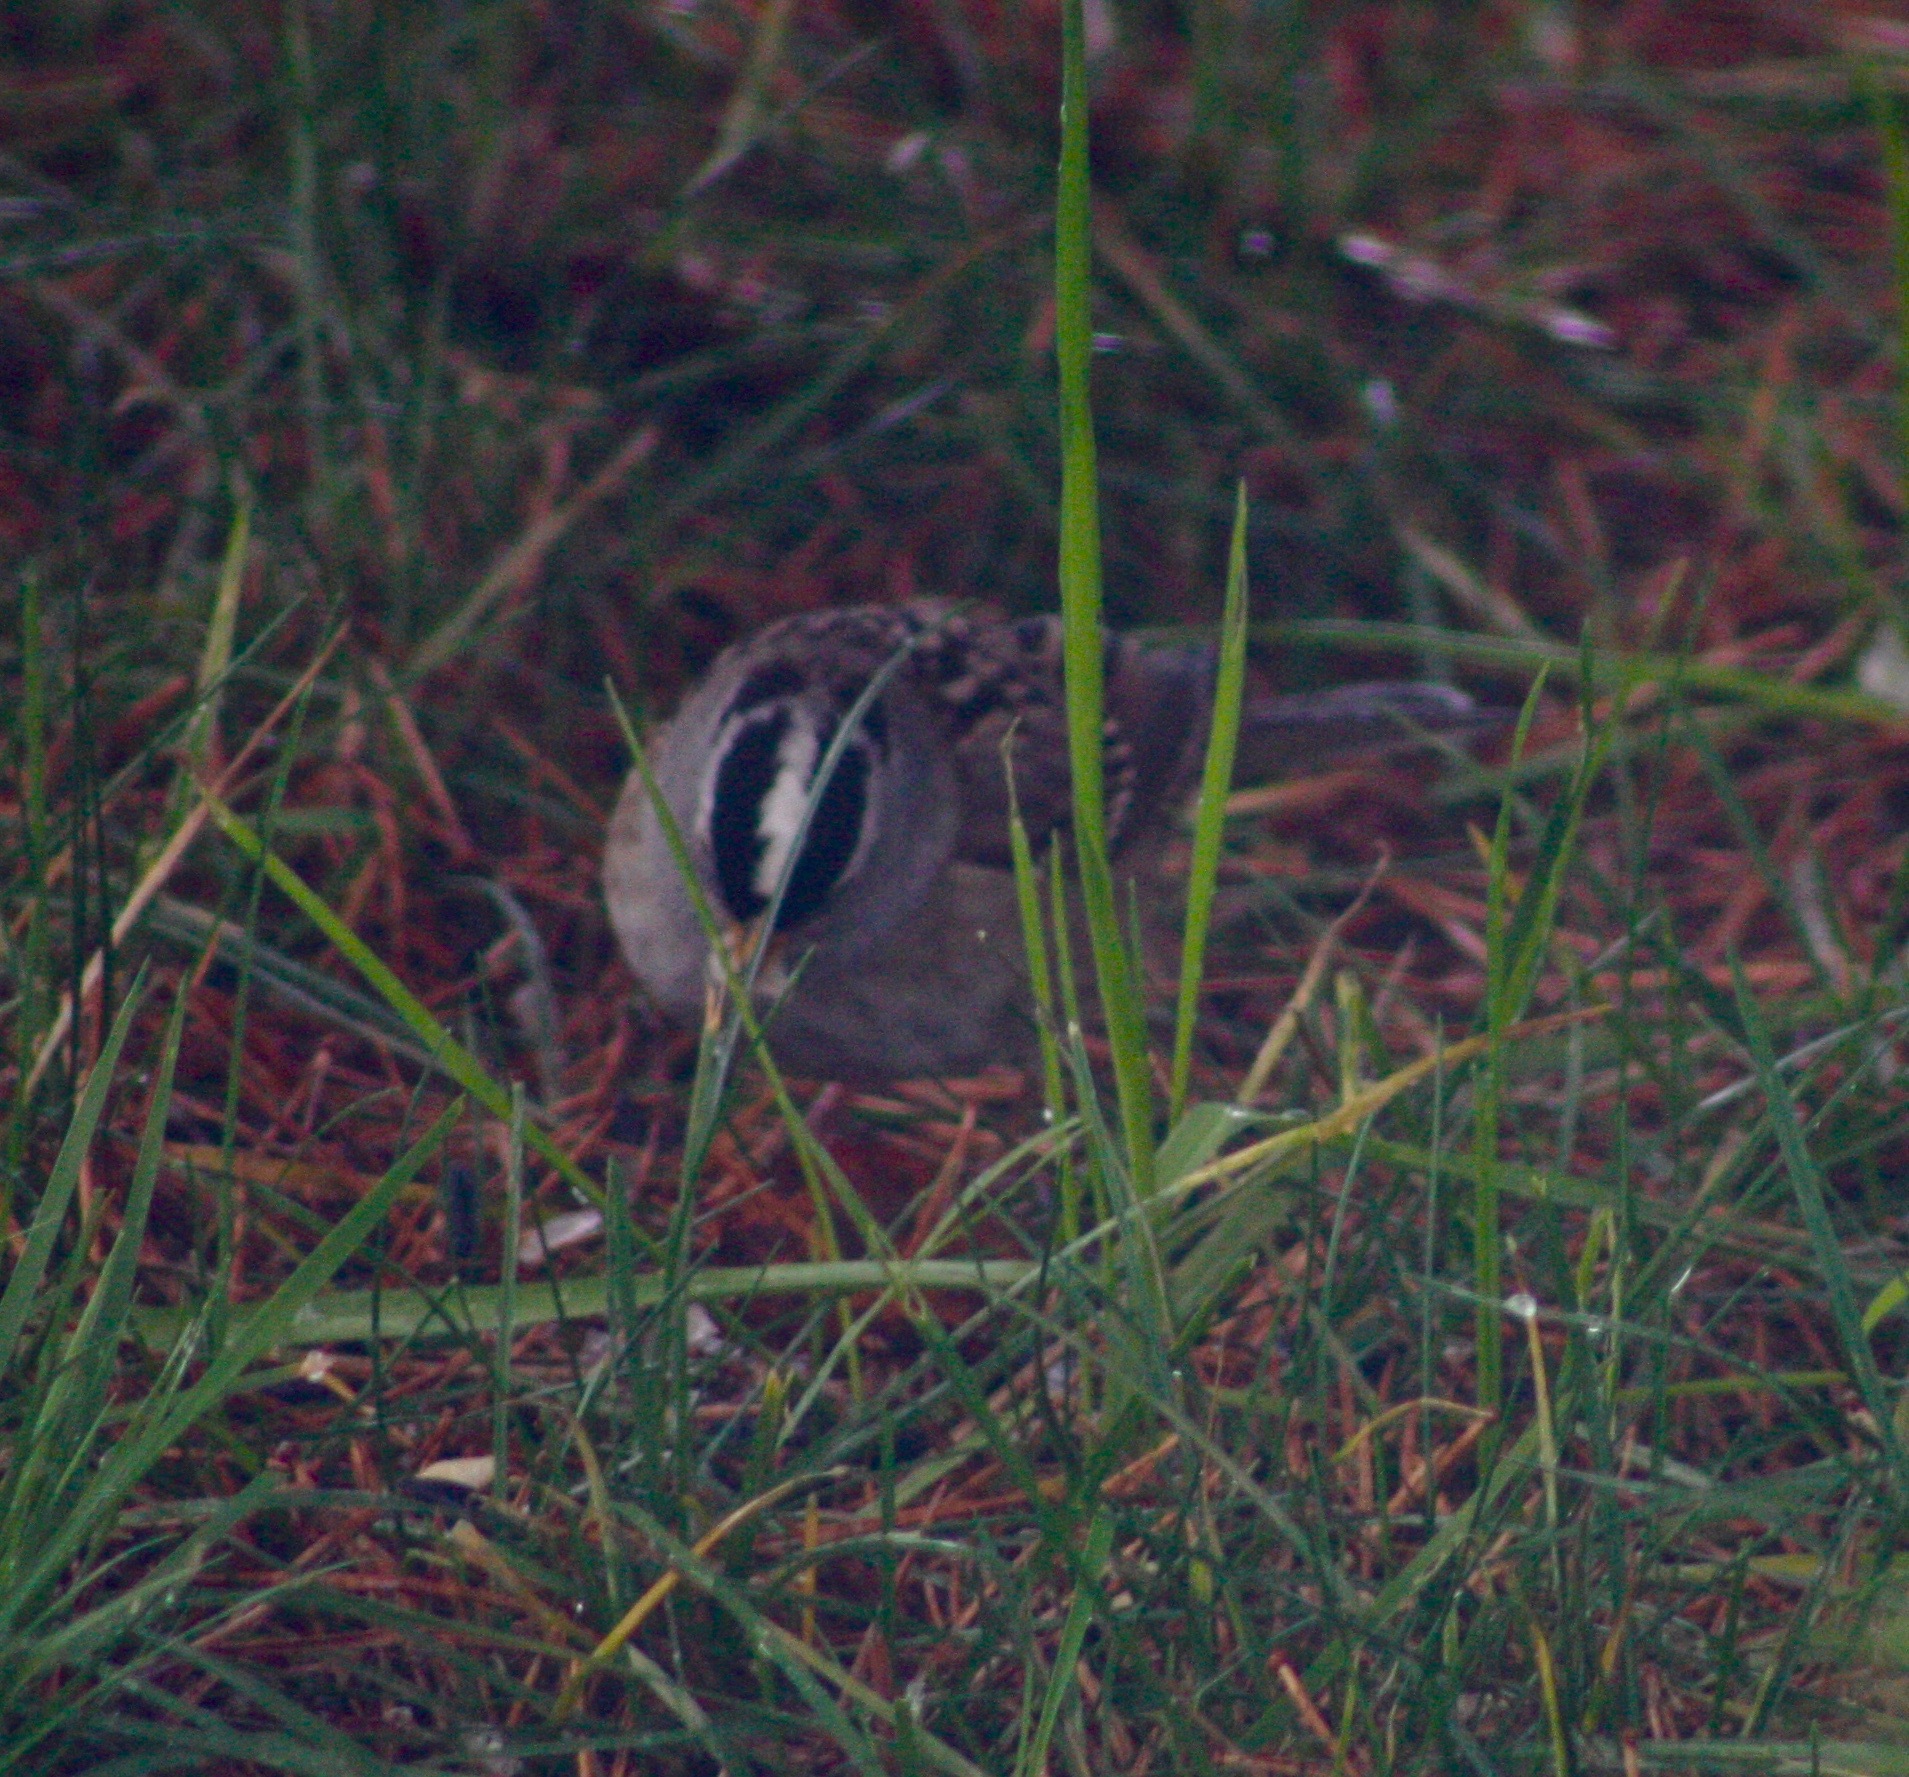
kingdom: Animalia
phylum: Chordata
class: Aves
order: Passeriformes
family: Passerellidae
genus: Zonotrichia
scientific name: Zonotrichia leucophrys
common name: White-crowned sparrow
